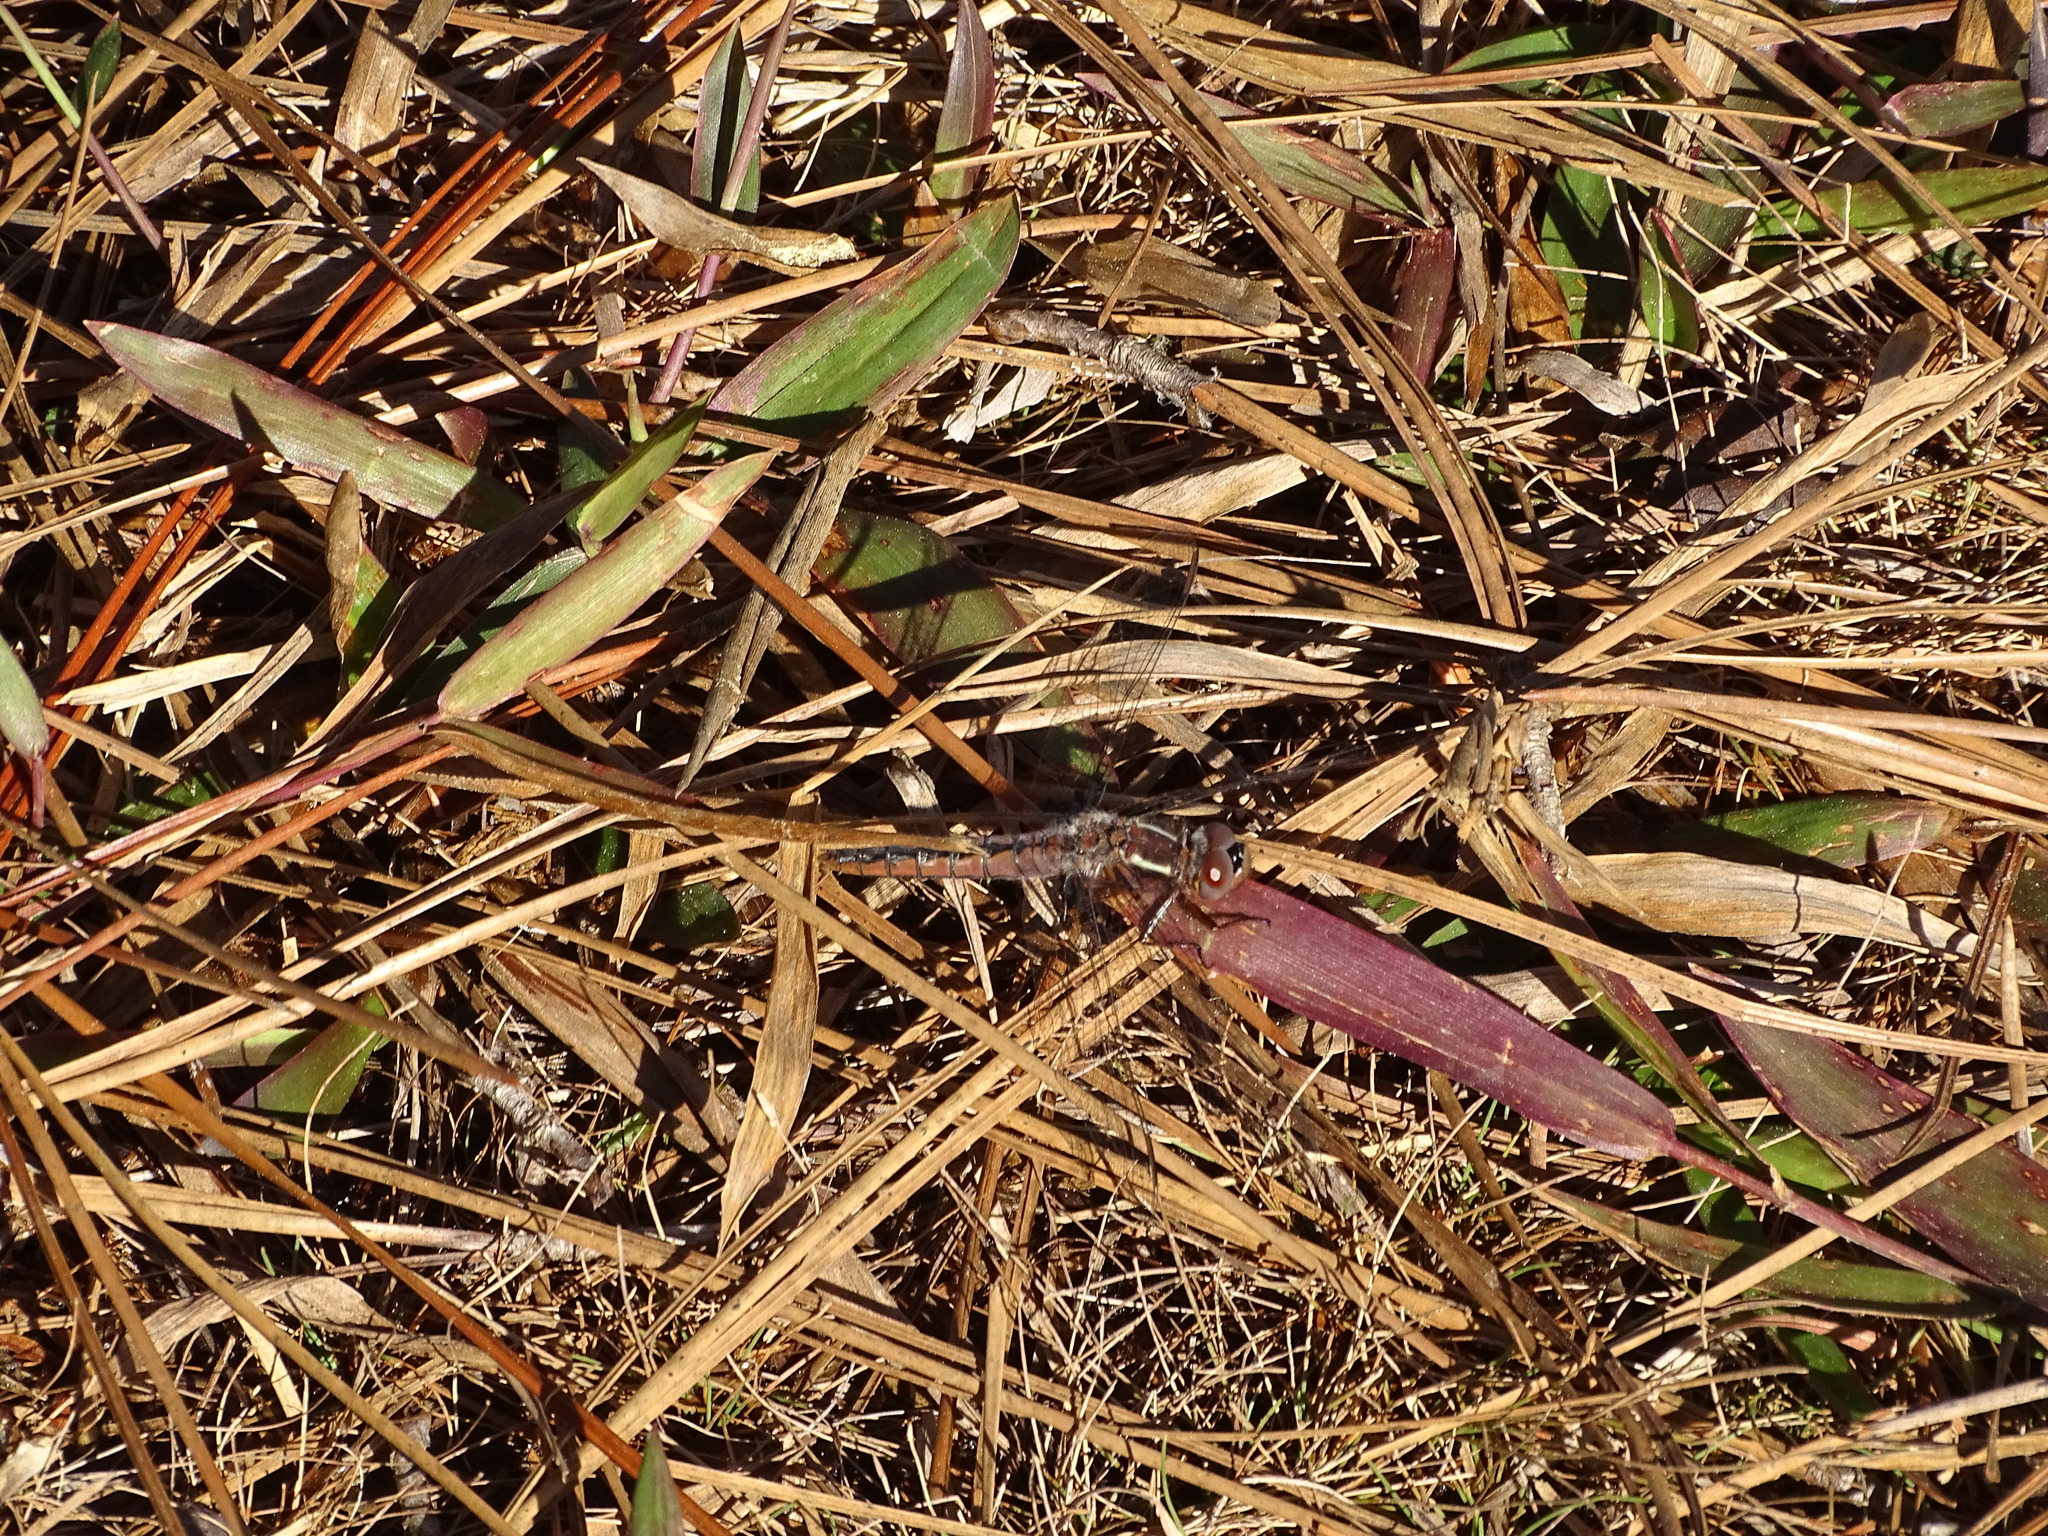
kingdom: Animalia
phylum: Arthropoda
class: Insecta
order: Odonata
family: Libellulidae
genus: Ladona
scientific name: Ladona deplanata
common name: Blue corporal
